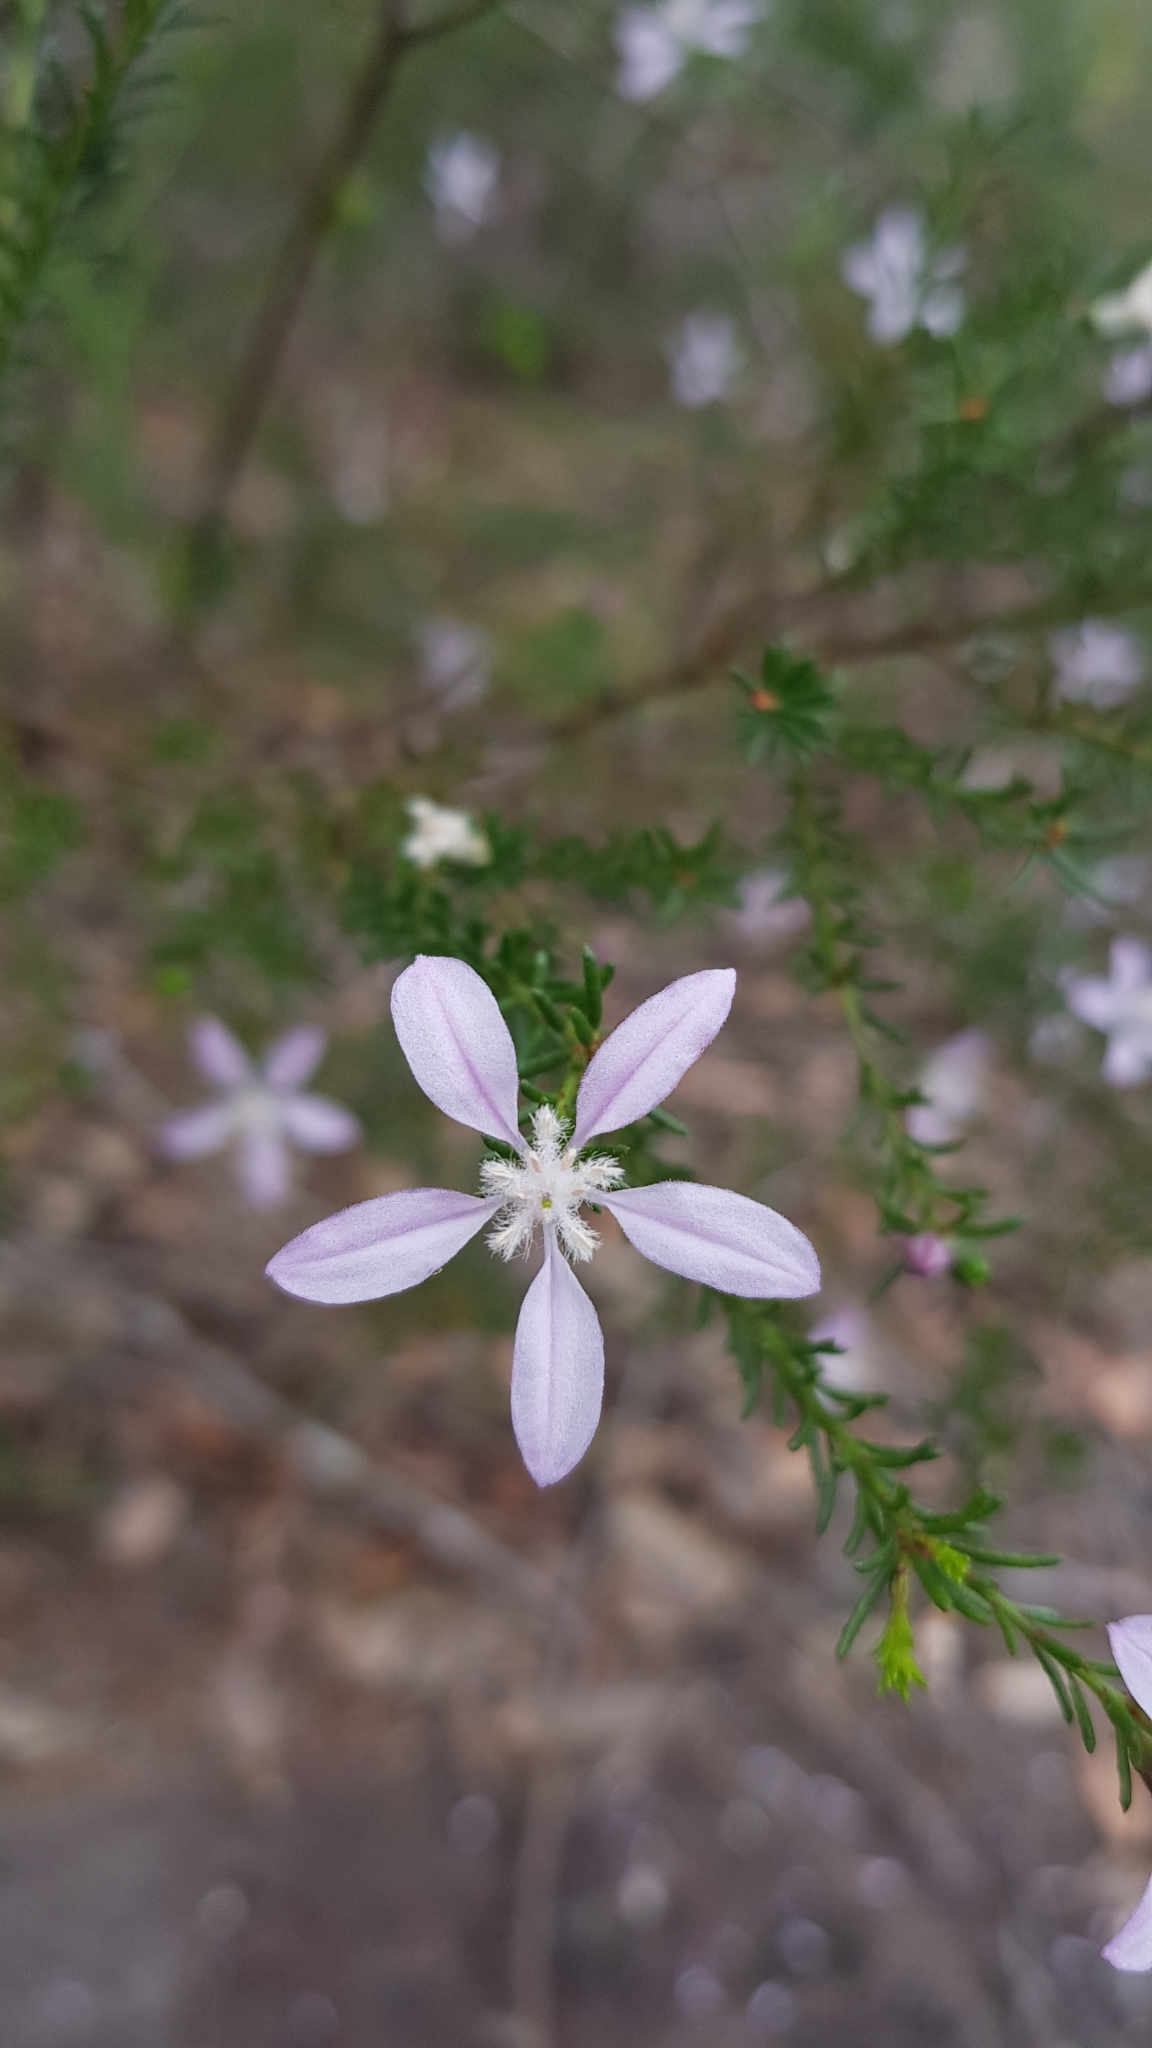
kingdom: Plantae
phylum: Tracheophyta
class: Magnoliopsida
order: Sapindales
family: Rutaceae
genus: Philotheca
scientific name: Philotheca salsolifolia
